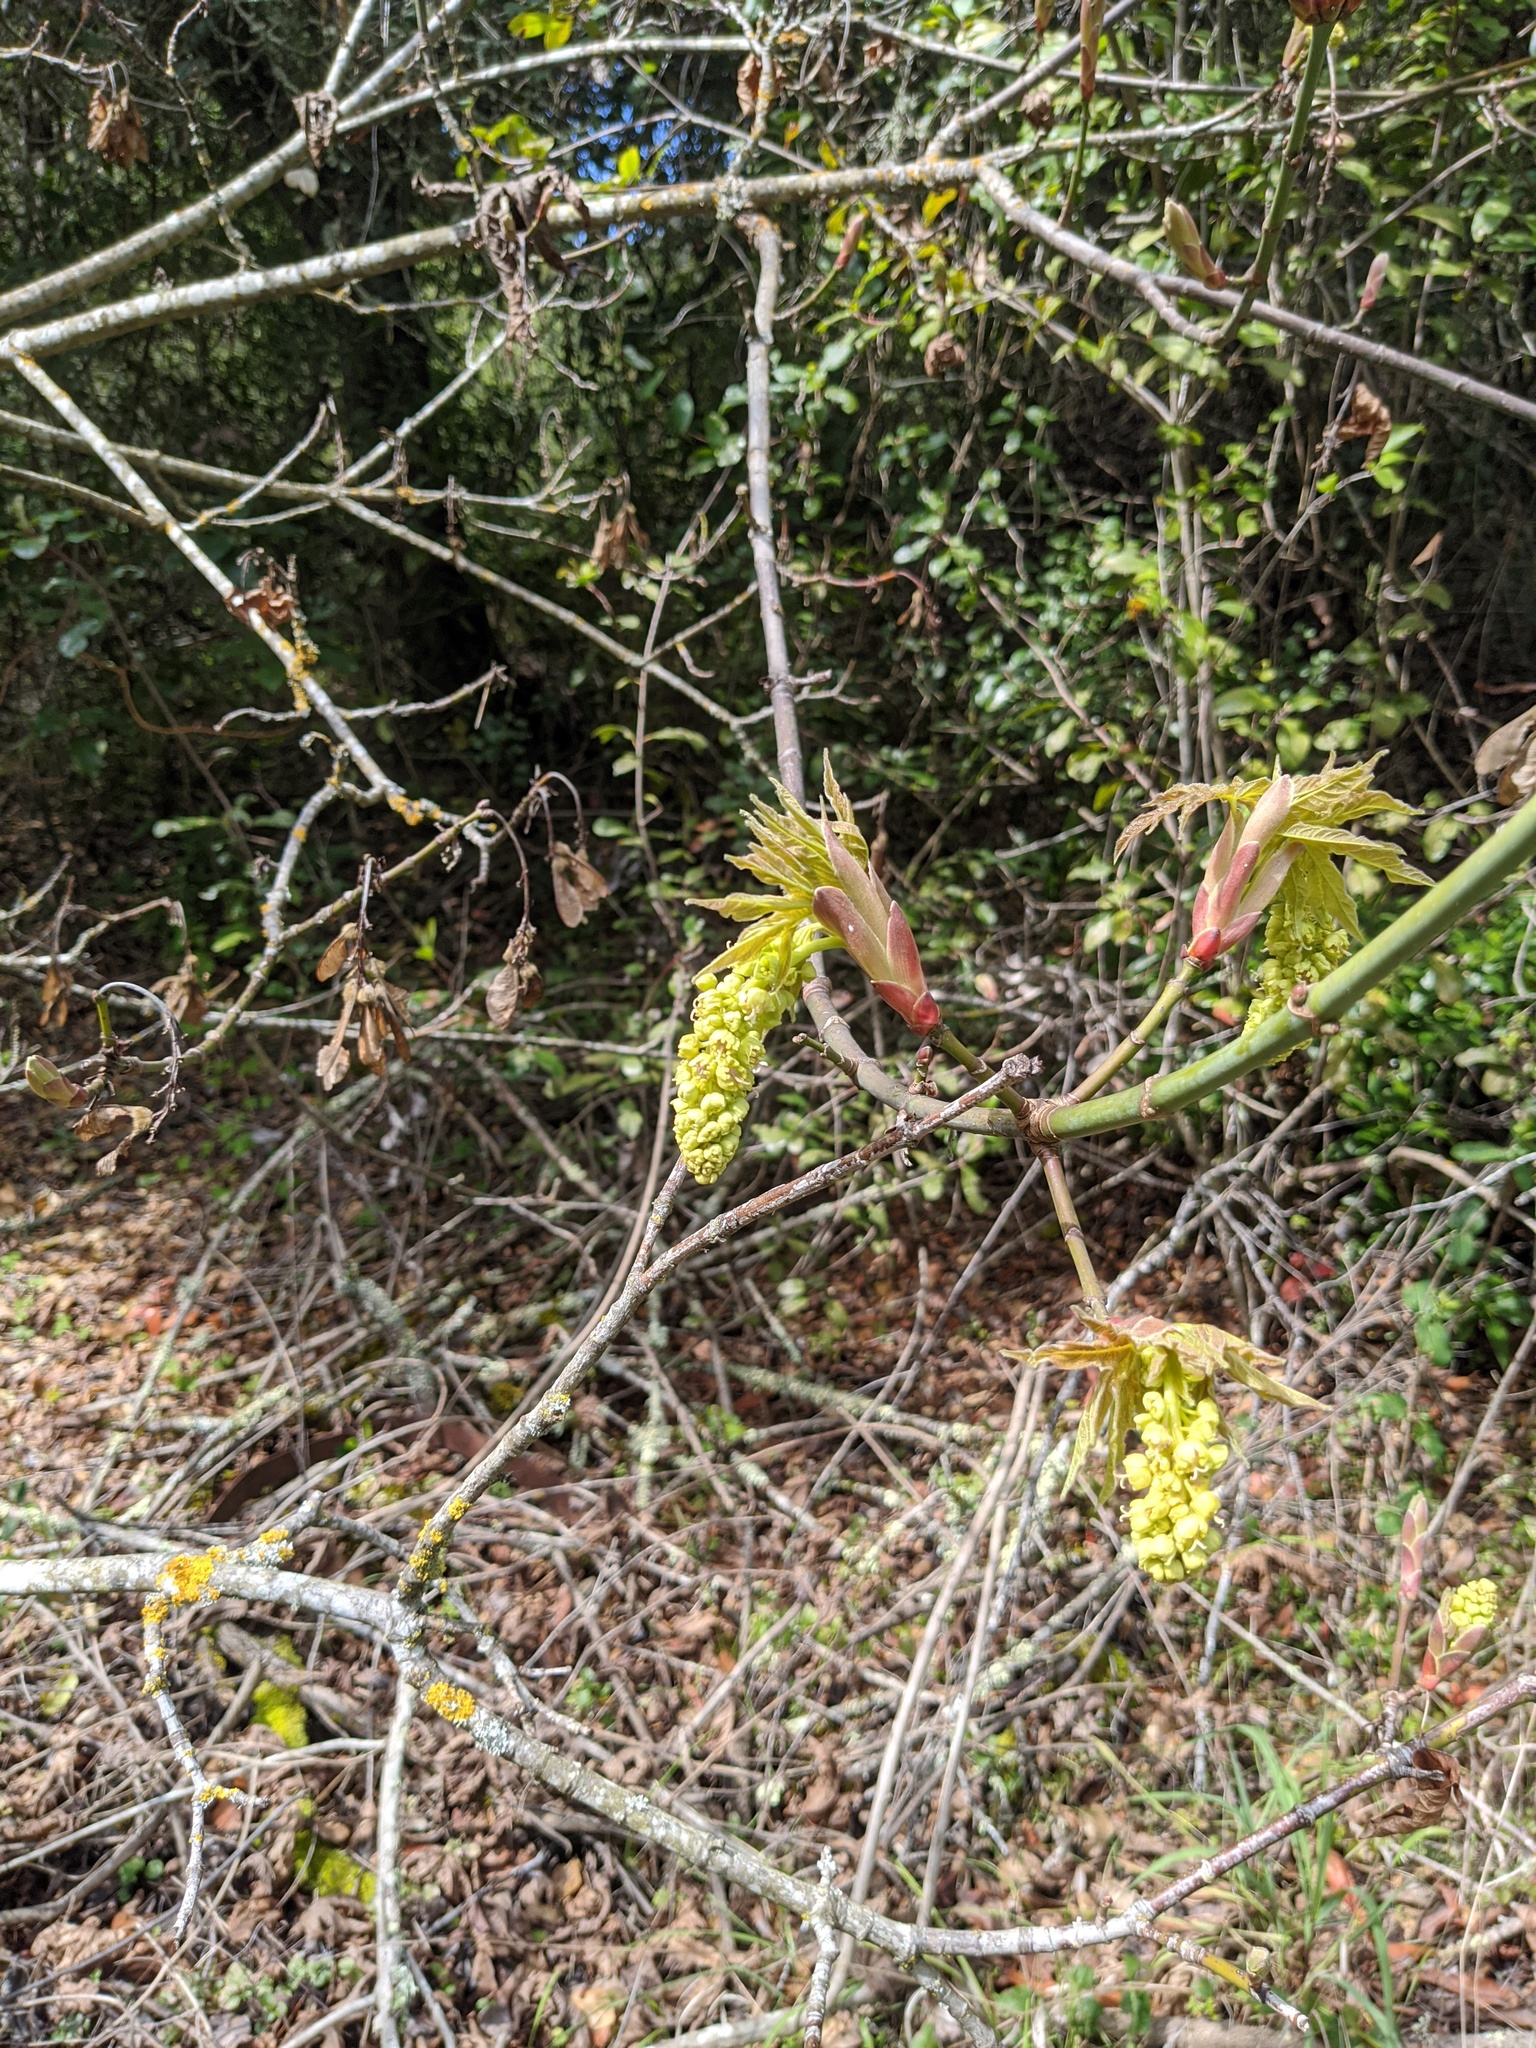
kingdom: Plantae
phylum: Tracheophyta
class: Magnoliopsida
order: Sapindales
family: Sapindaceae
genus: Acer
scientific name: Acer macrophyllum
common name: Oregon maple
